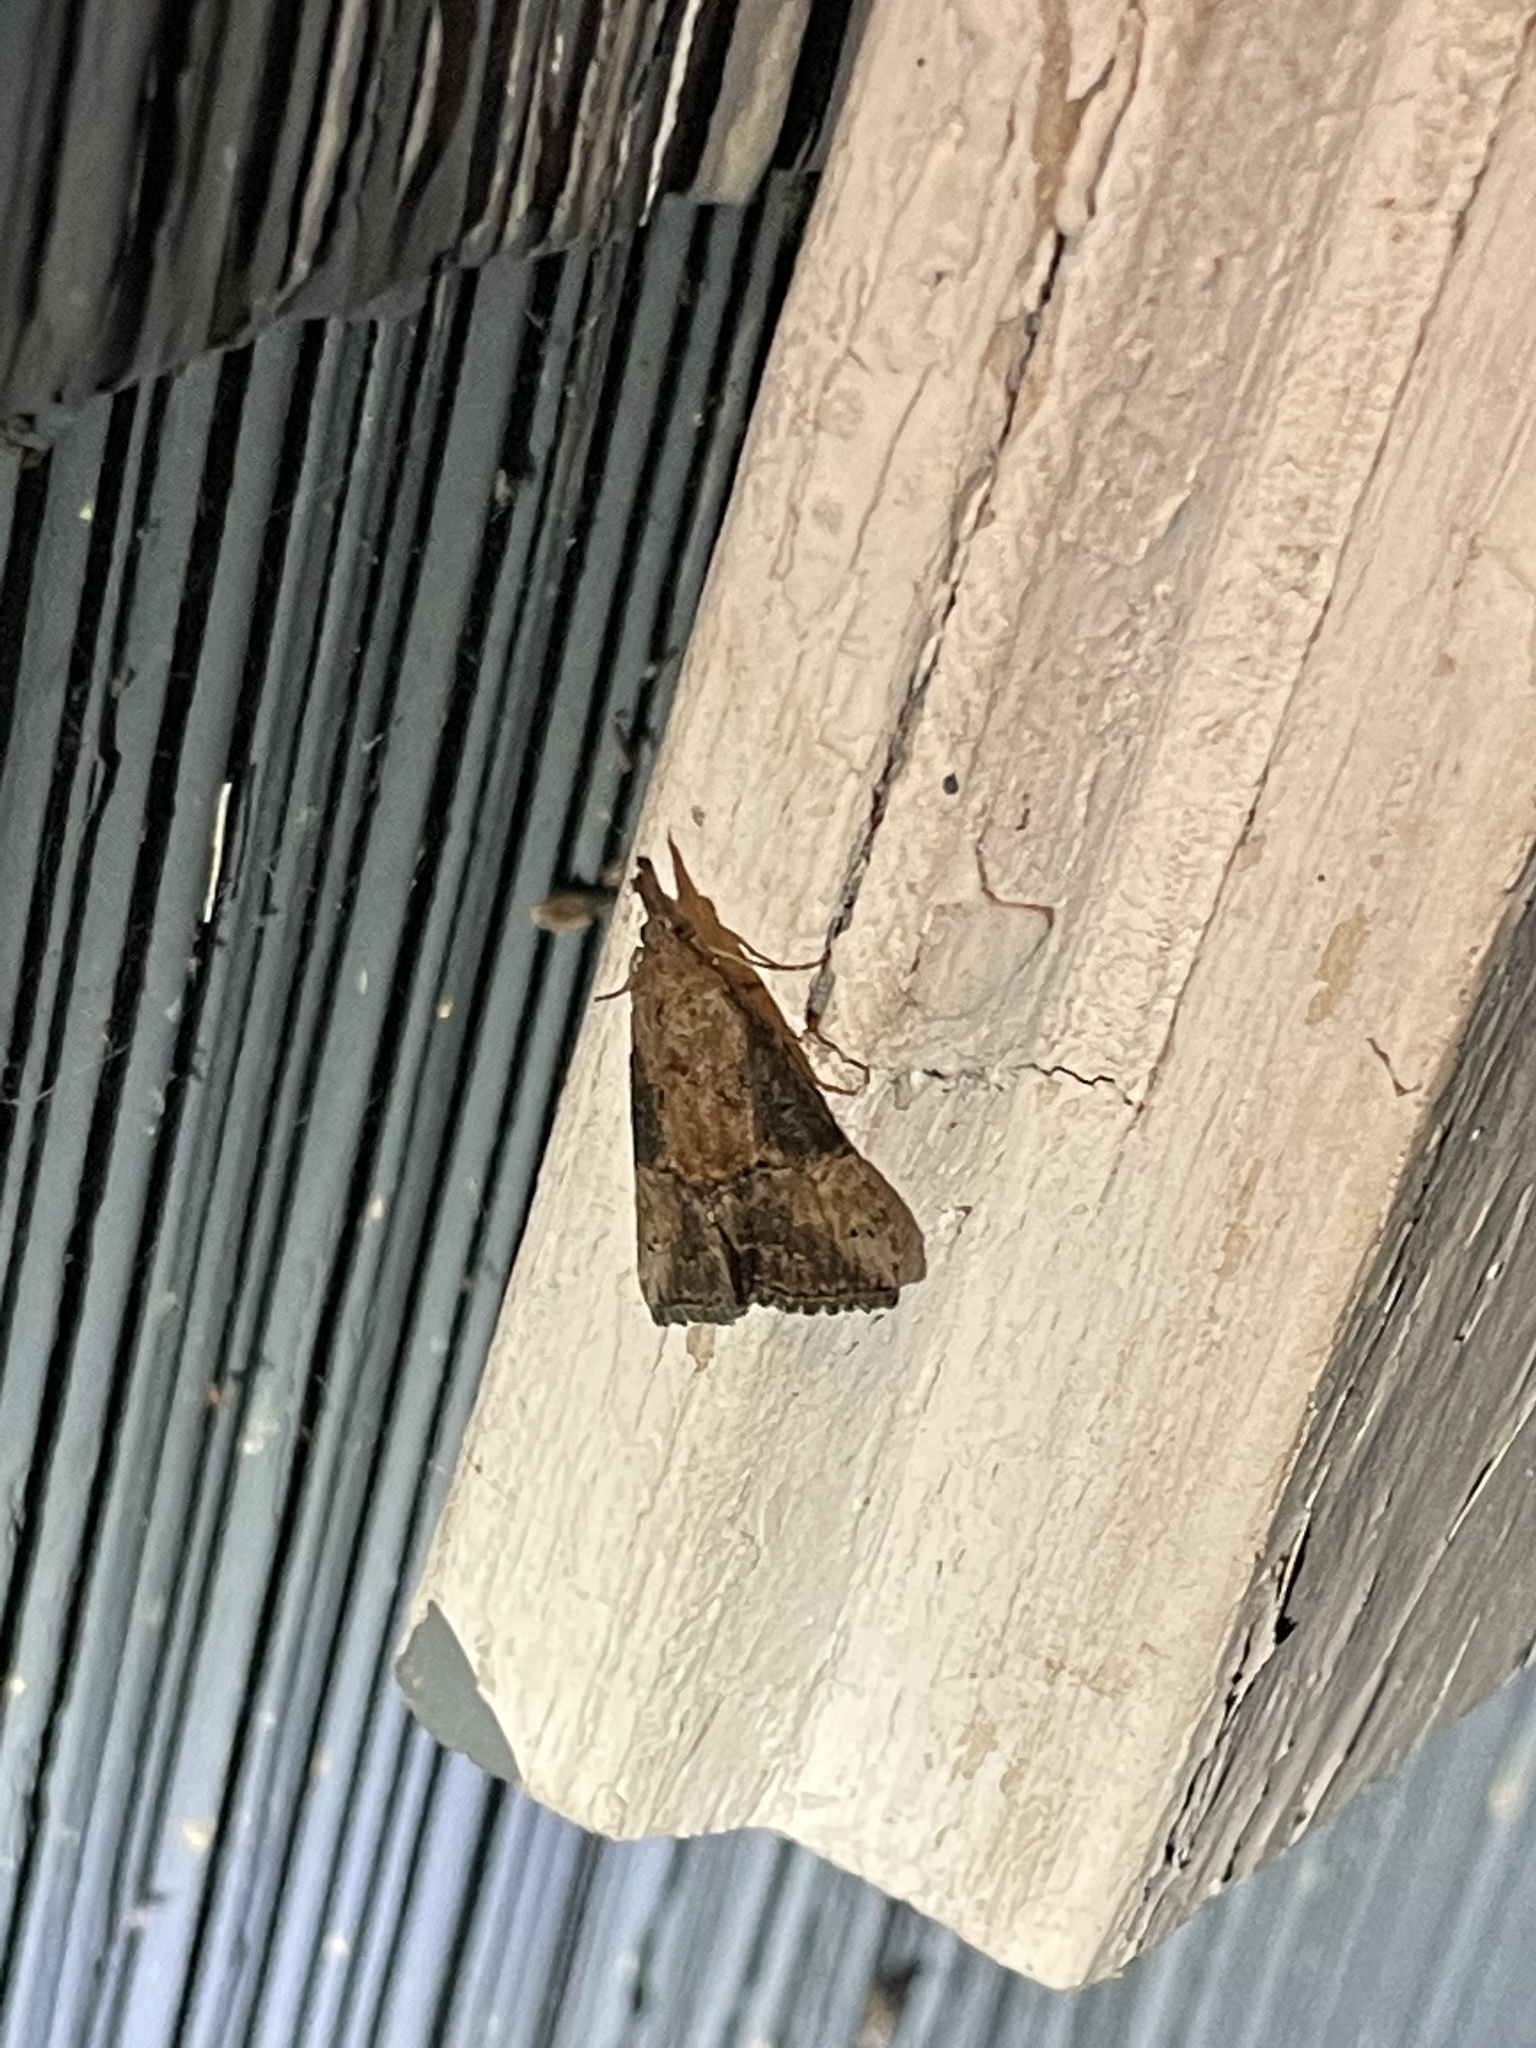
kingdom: Animalia
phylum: Arthropoda
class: Insecta
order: Lepidoptera
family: Erebidae
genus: Hypena
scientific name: Hypena scabra
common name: Green cloverworm
